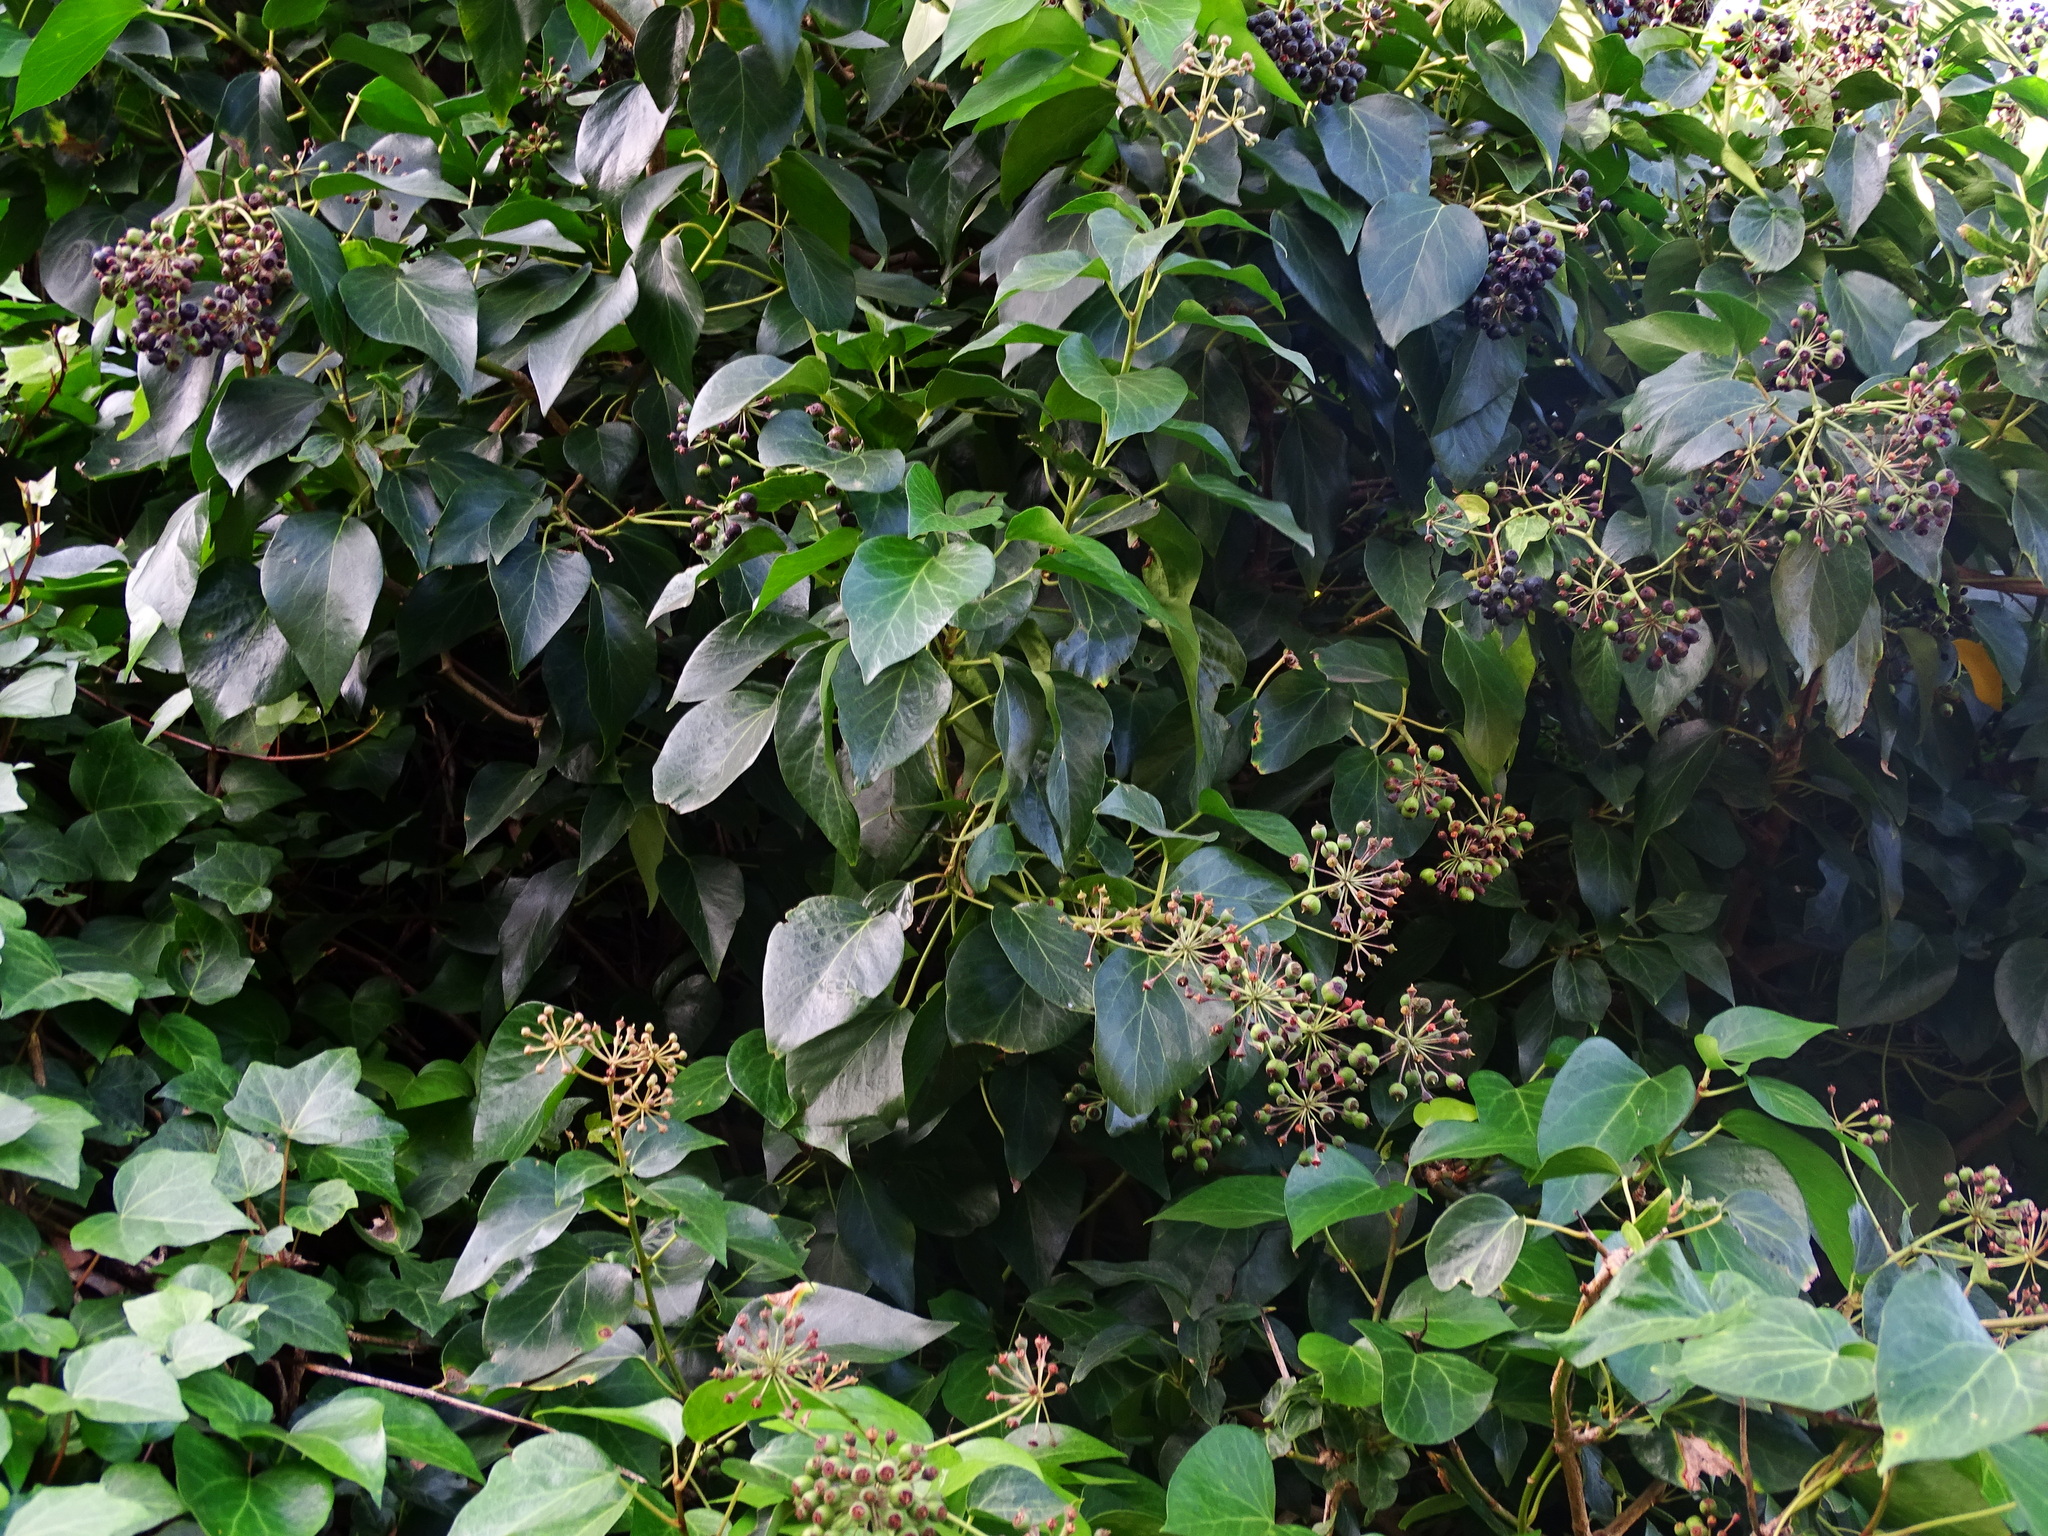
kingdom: Plantae
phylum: Tracheophyta
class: Magnoliopsida
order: Apiales
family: Araliaceae
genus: Hedera
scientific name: Hedera canariensis
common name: Madeira ivy
